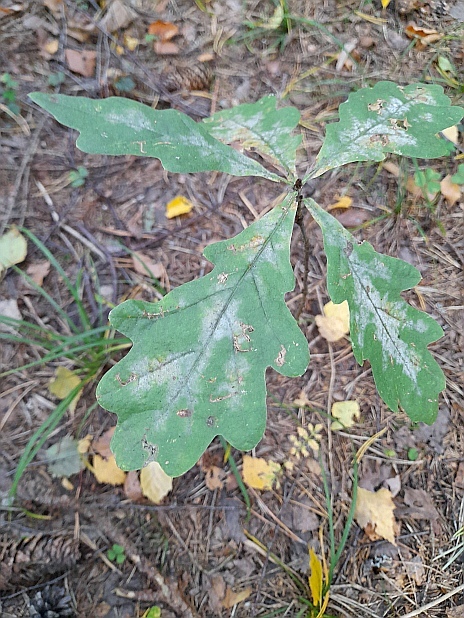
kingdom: Plantae
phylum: Tracheophyta
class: Magnoliopsida
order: Fagales
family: Fagaceae
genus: Quercus
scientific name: Quercus robur
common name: Pedunculate oak
